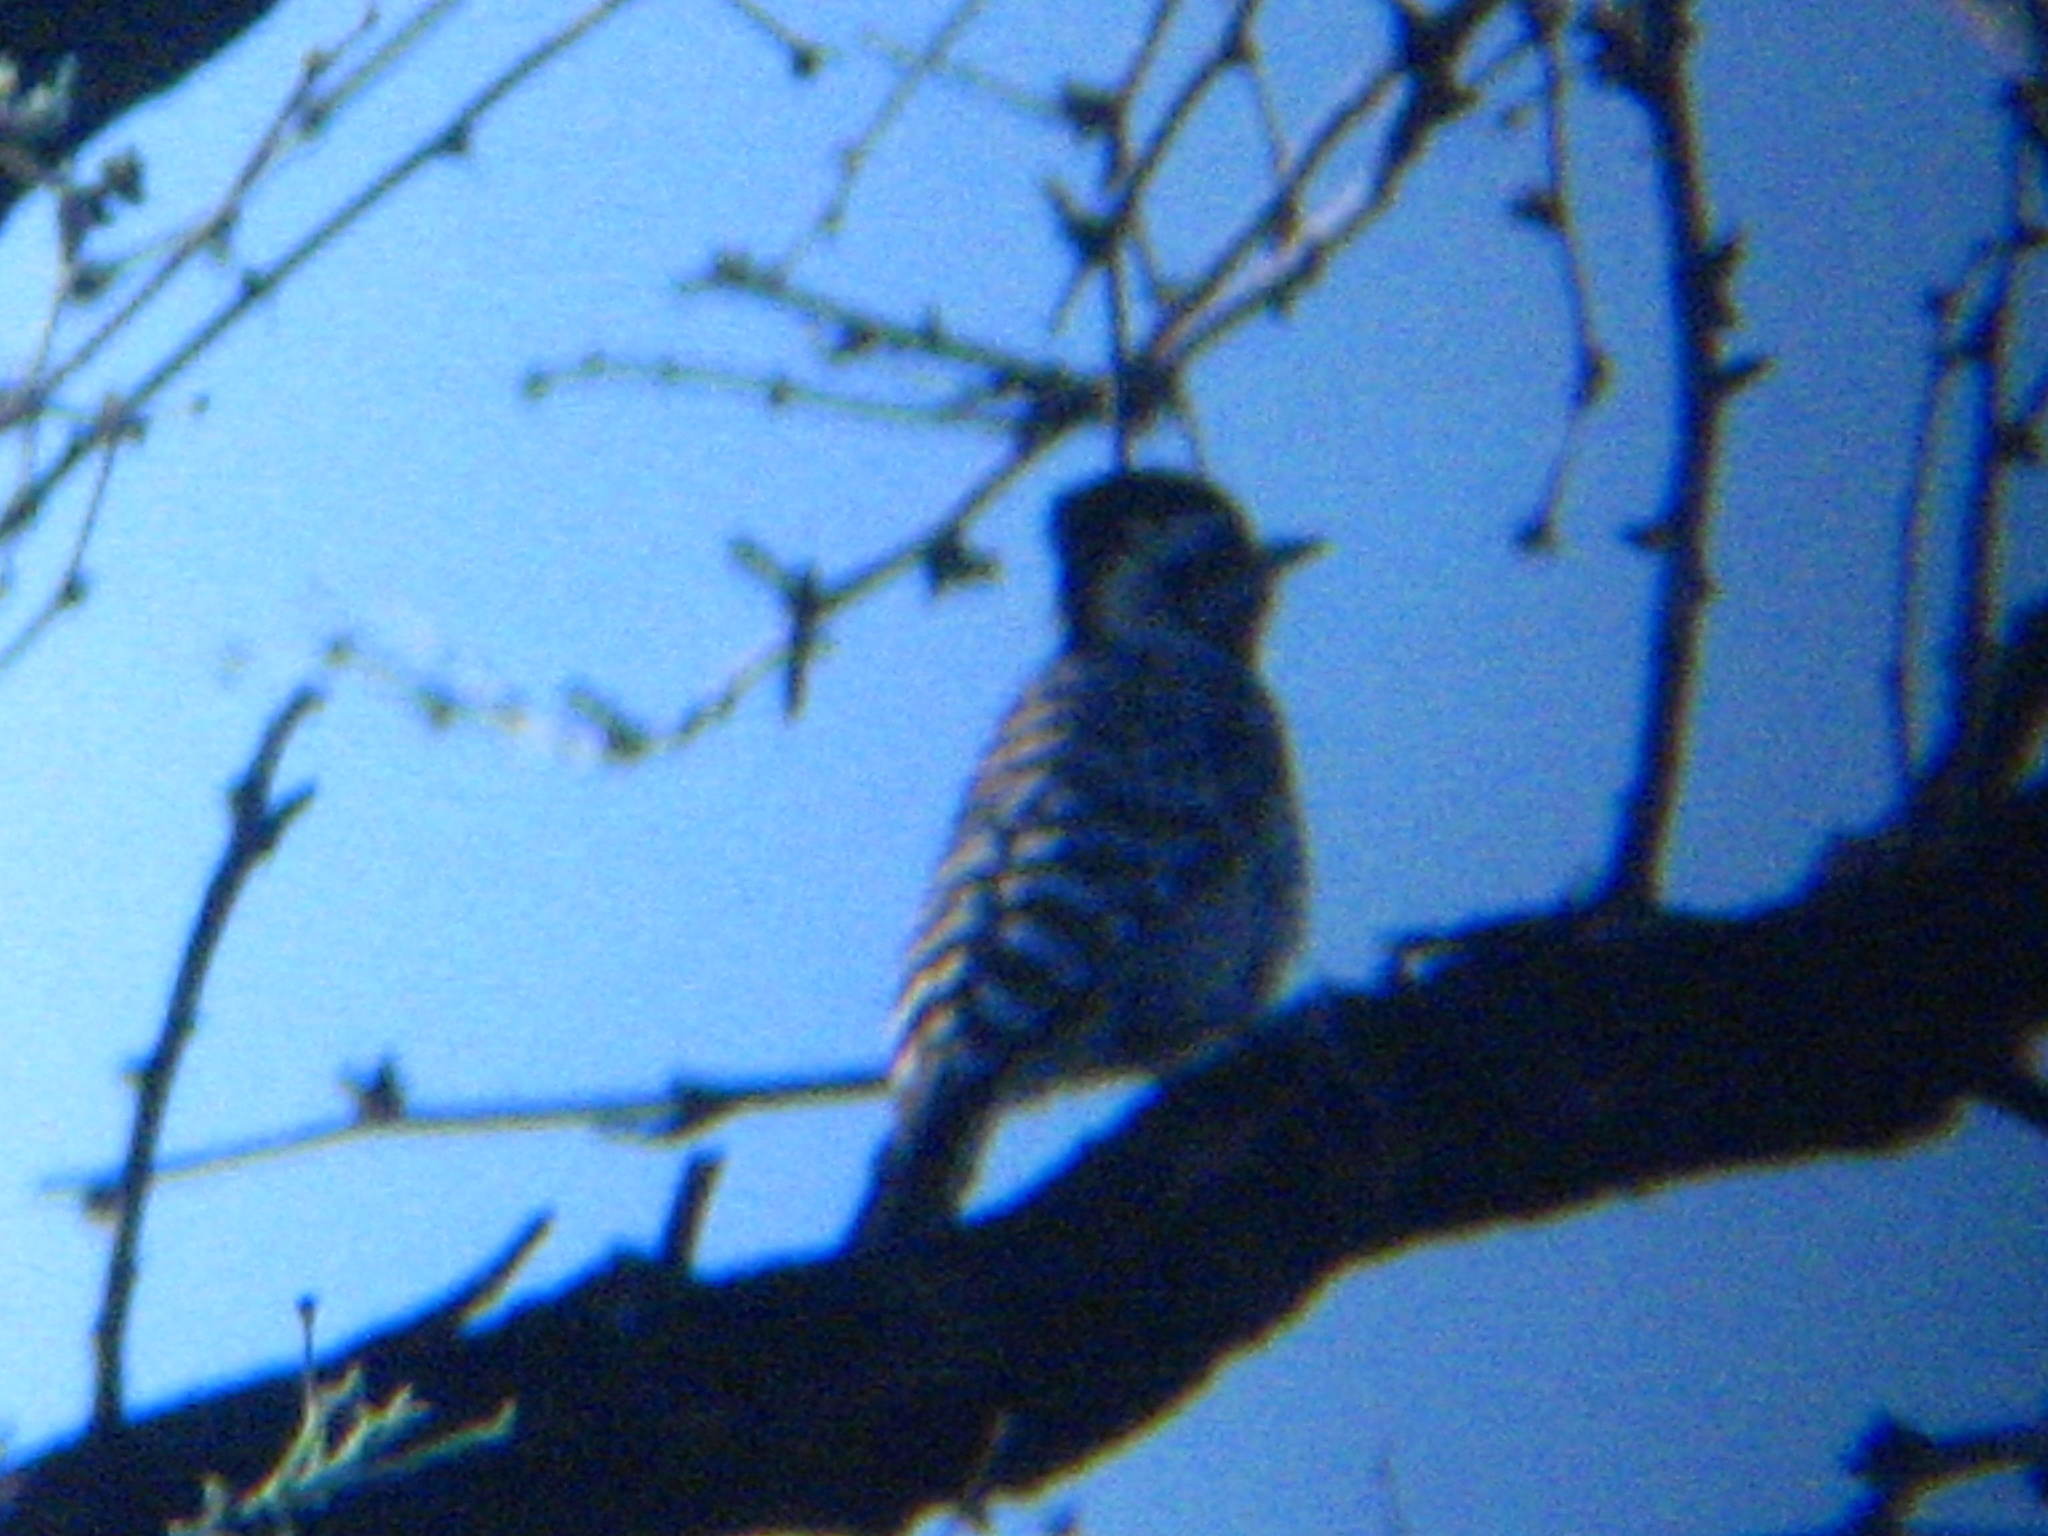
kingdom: Animalia
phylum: Chordata
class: Aves
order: Piciformes
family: Picidae
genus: Dryobates
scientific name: Dryobates scalaris
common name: Ladder-backed woodpecker
